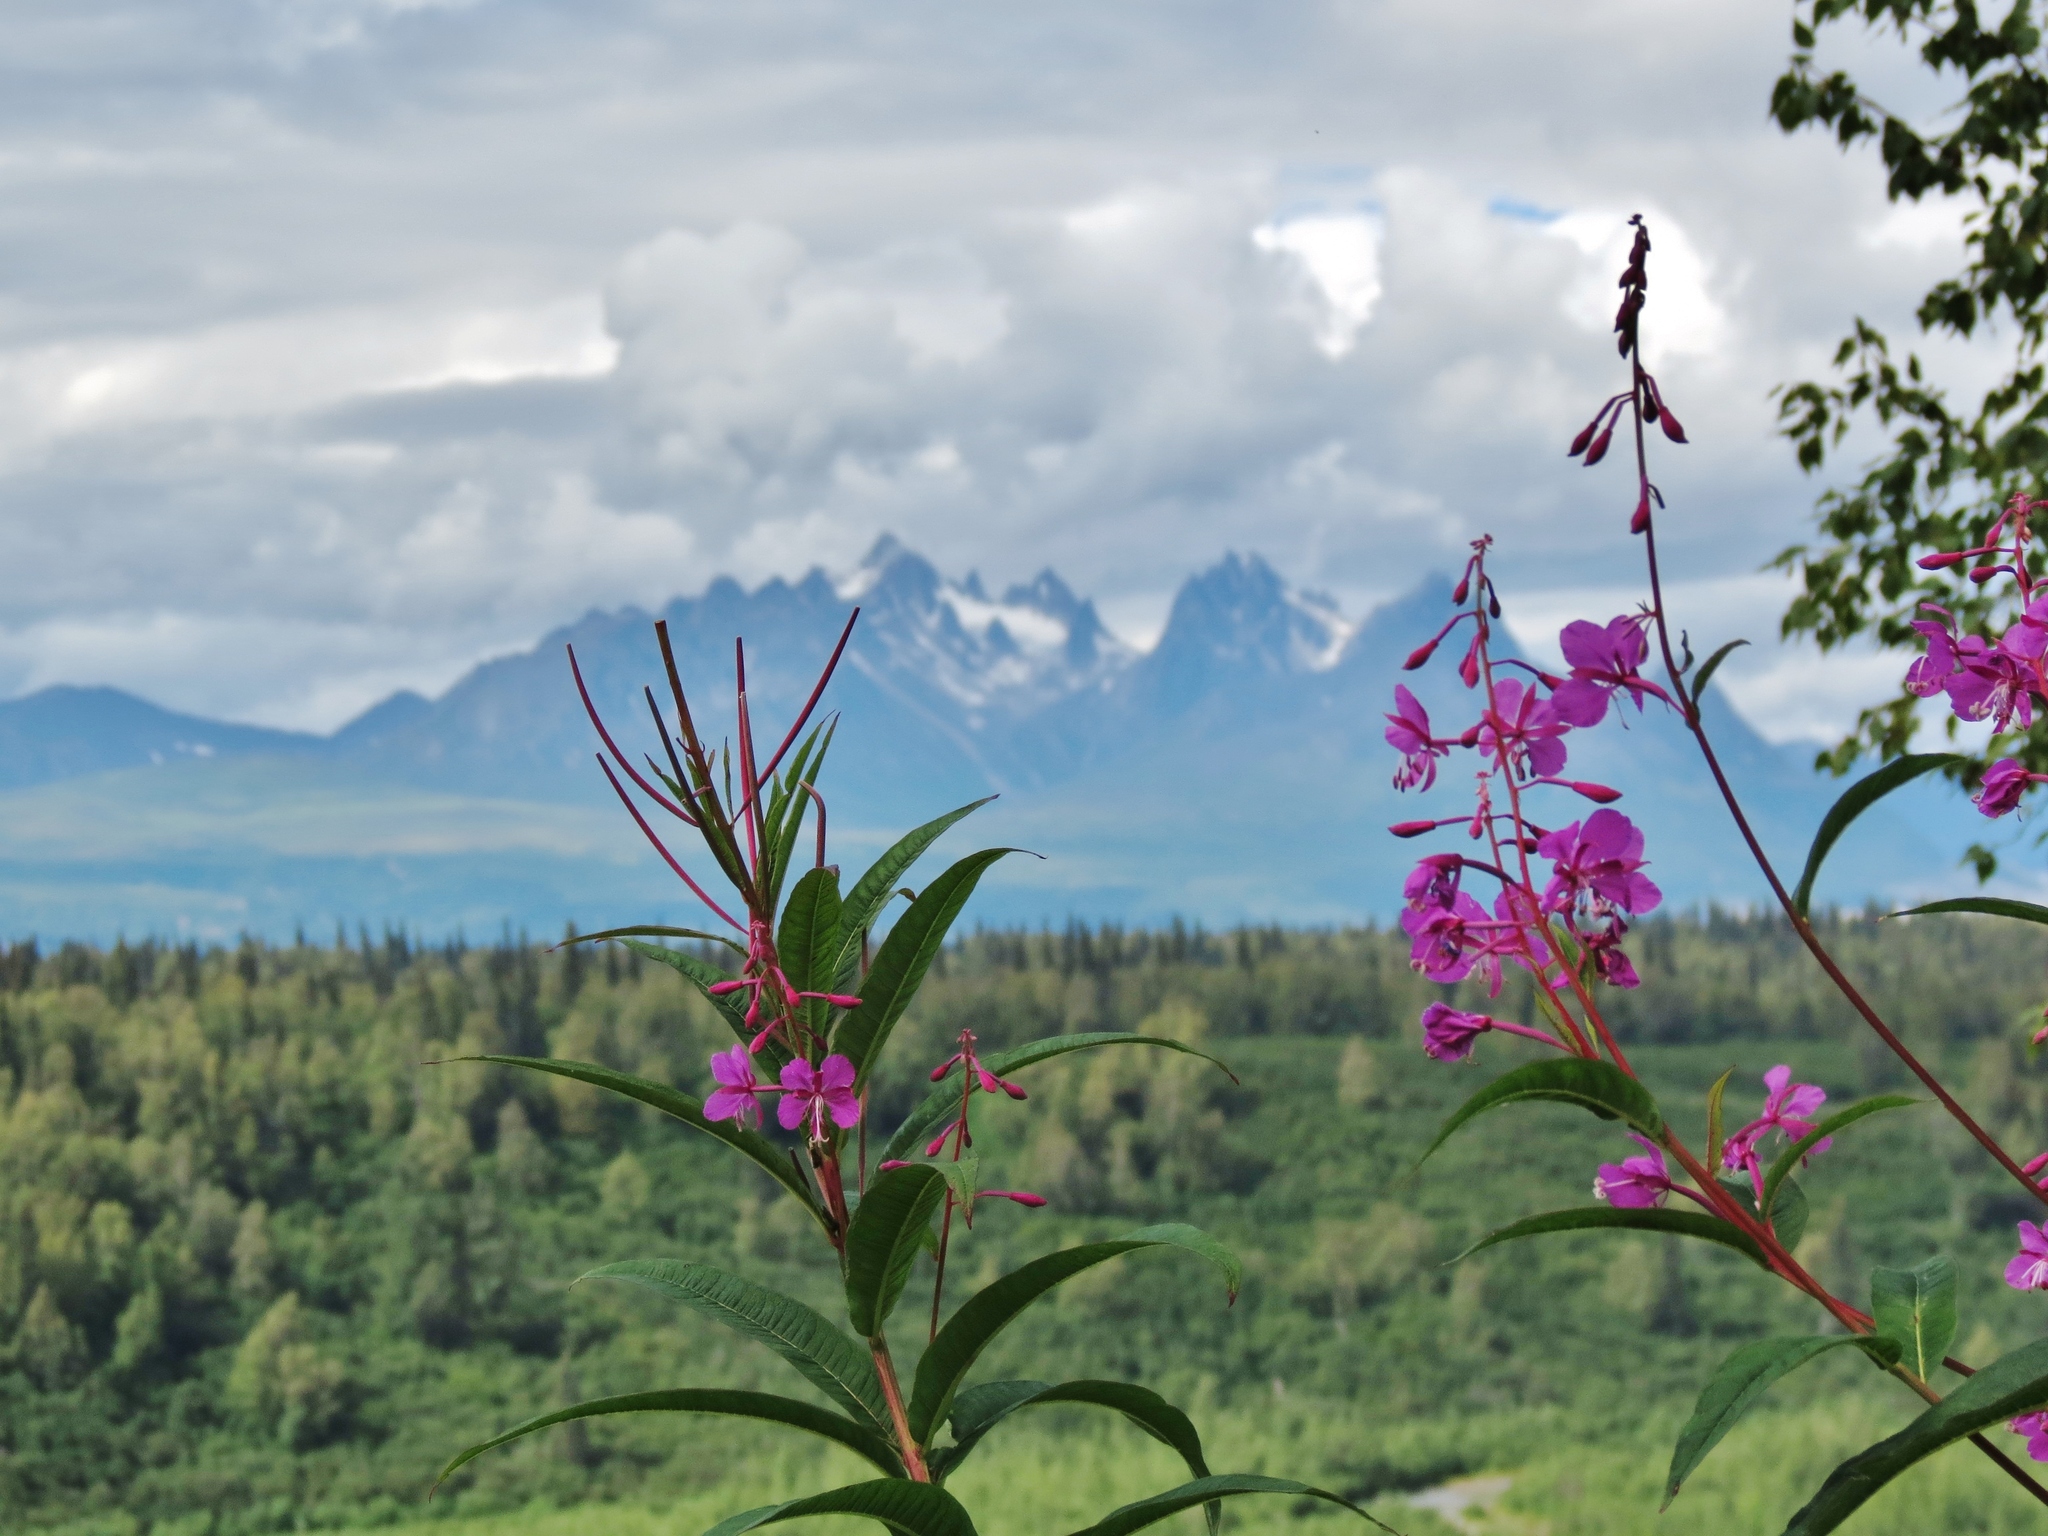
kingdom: Plantae
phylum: Tracheophyta
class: Magnoliopsida
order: Myrtales
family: Onagraceae
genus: Chamaenerion
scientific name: Chamaenerion angustifolium
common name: Fireweed
